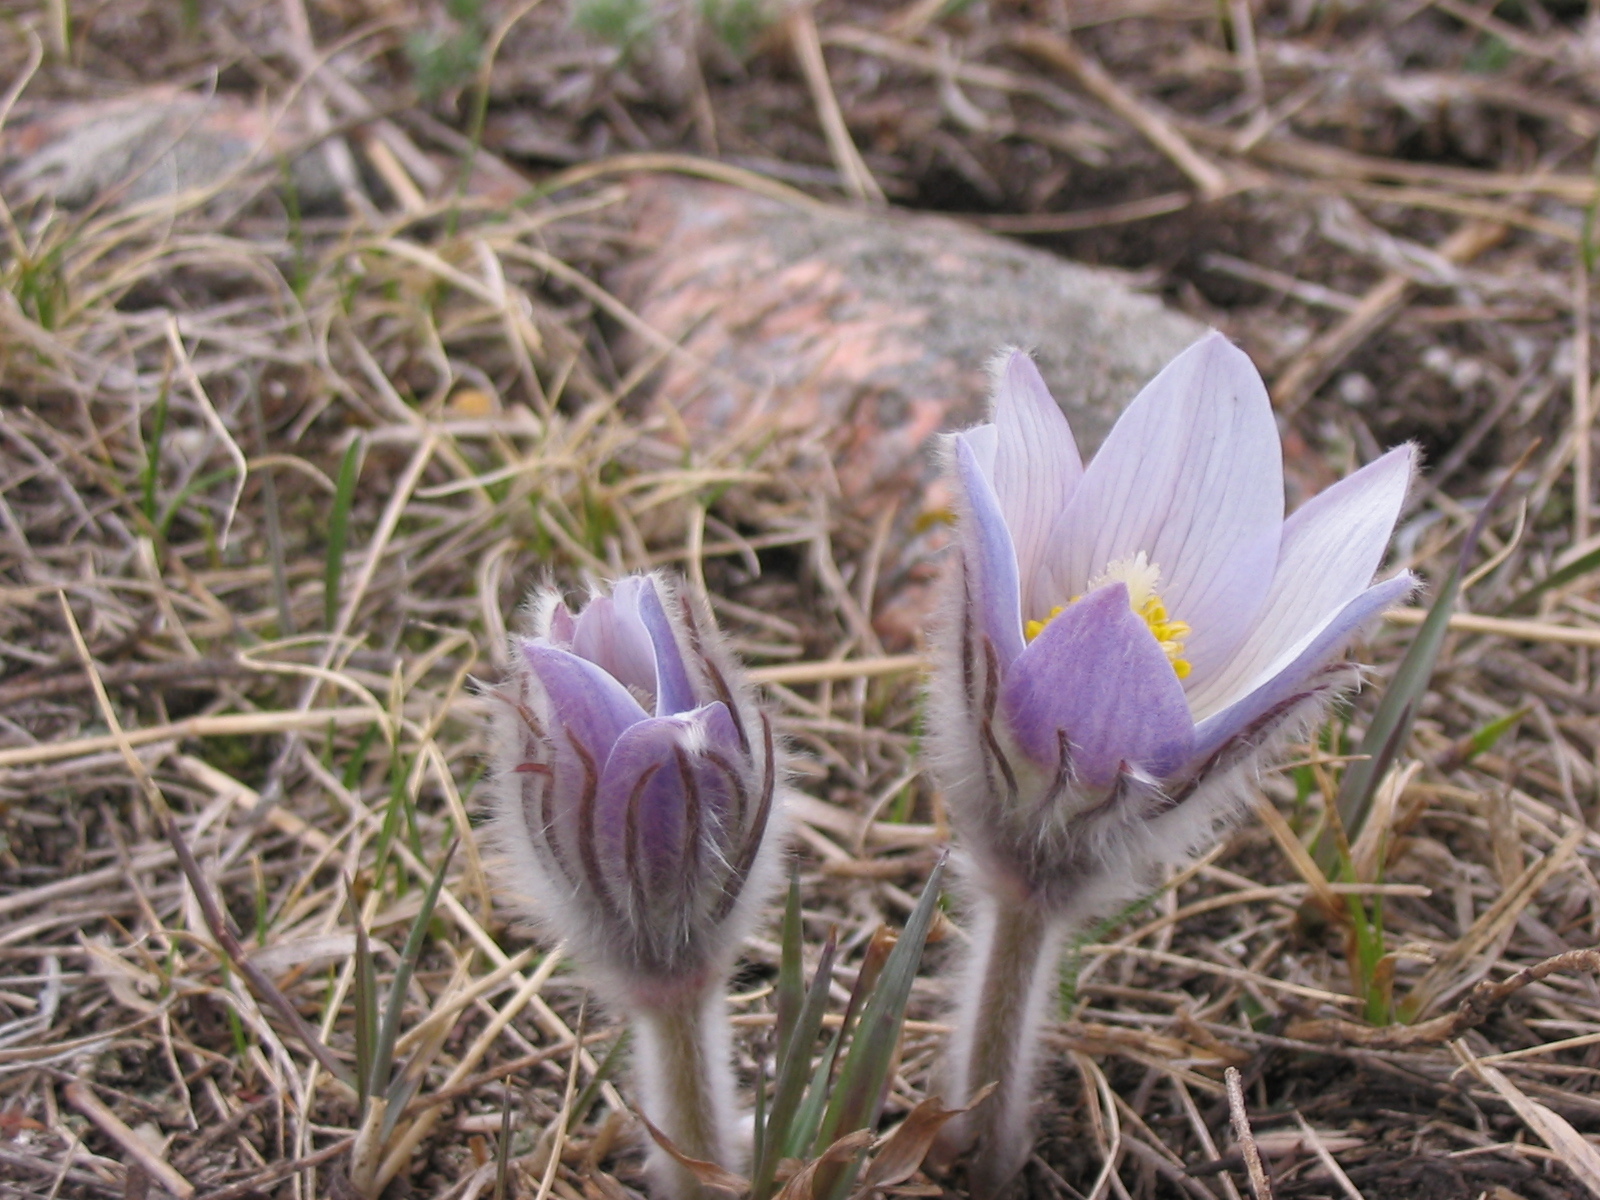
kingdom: Plantae
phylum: Tracheophyta
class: Magnoliopsida
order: Ranunculales
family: Ranunculaceae
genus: Pulsatilla
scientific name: Pulsatilla nuttalliana
